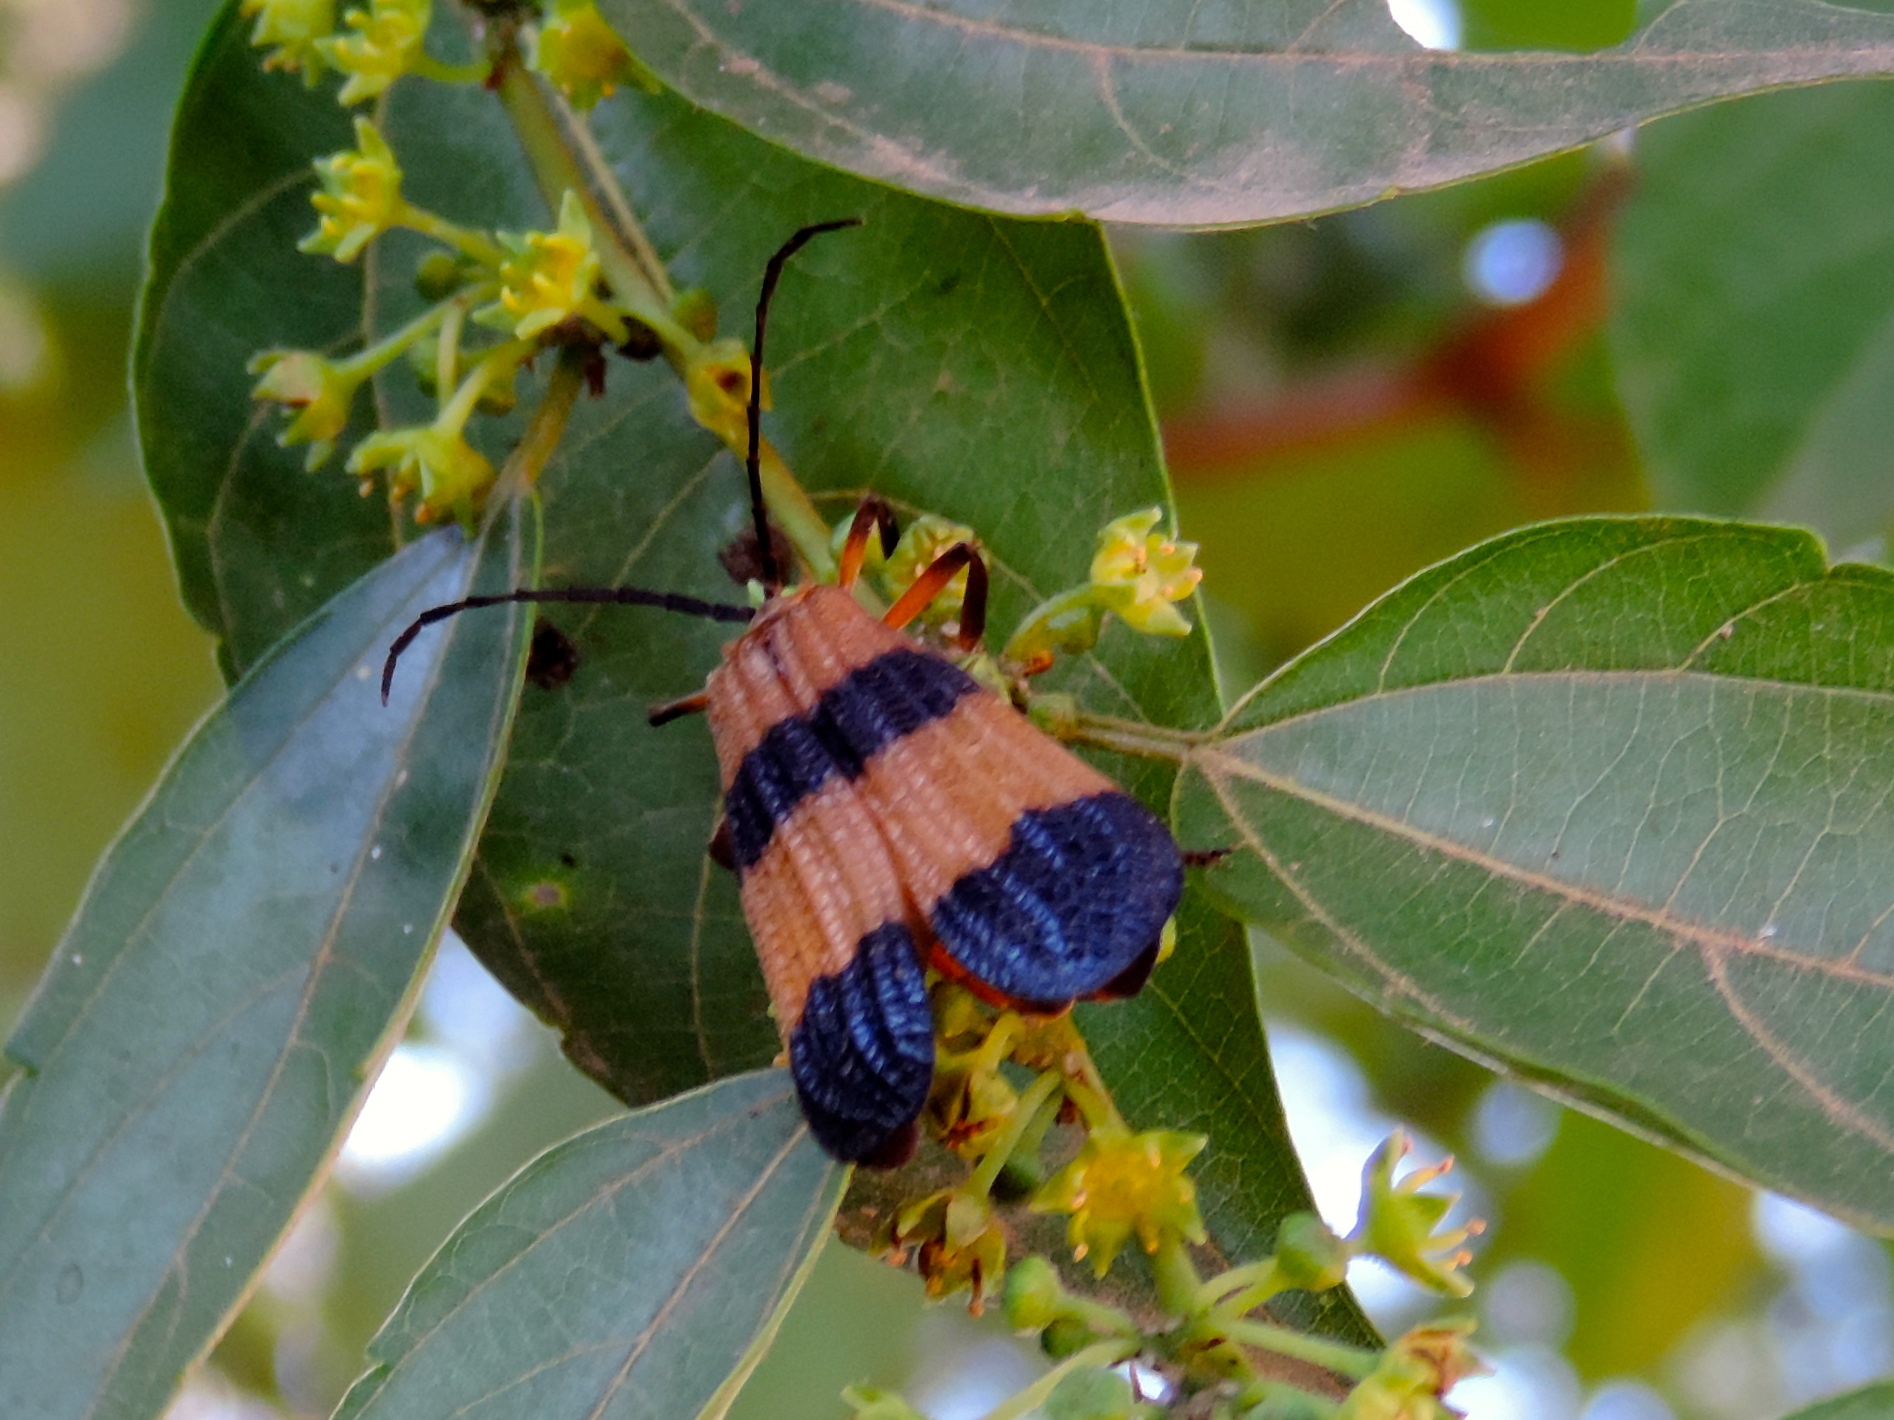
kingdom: Animalia
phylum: Arthropoda
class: Insecta
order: Coleoptera
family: Lycidae
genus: Calopteron
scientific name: Calopteron
